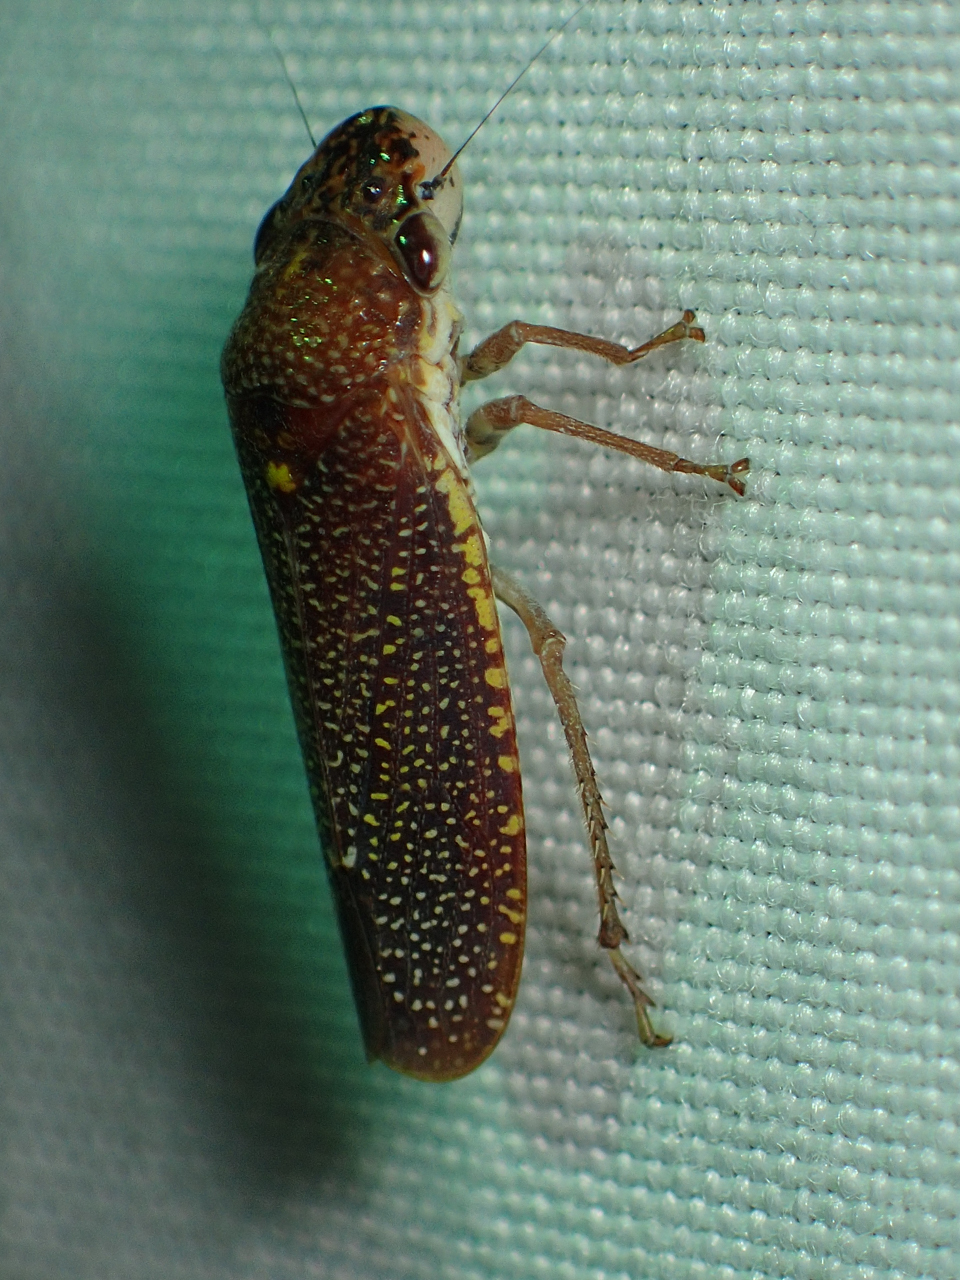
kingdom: Animalia
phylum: Arthropoda
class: Insecta
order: Hemiptera
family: Cicadellidae
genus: Paraulacizes
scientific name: Paraulacizes irrorata
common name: Speckled sharpshooter
